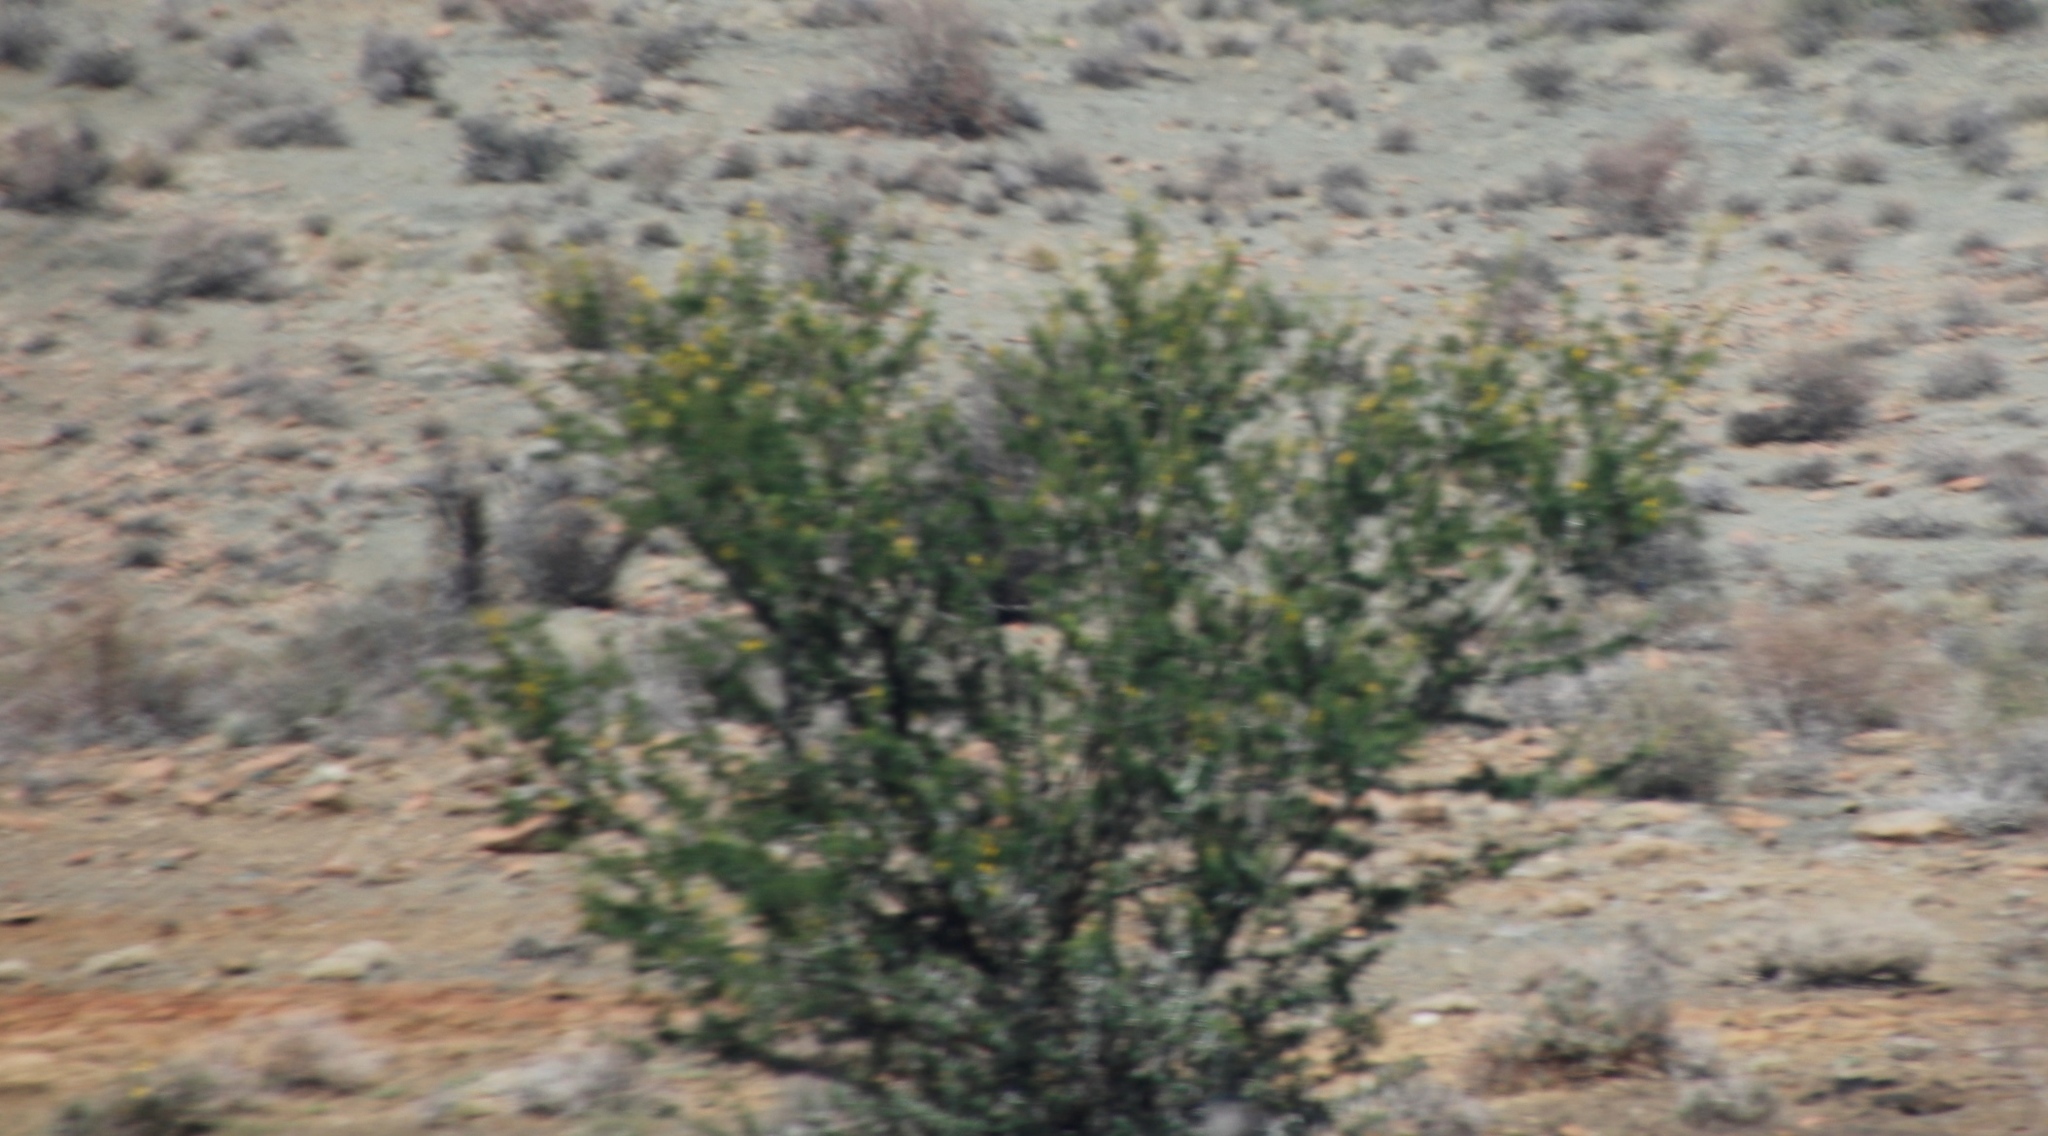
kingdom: Plantae
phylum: Tracheophyta
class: Magnoliopsida
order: Fabales
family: Fabaceae
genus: Vachellia
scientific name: Vachellia karroo
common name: Sweet thorn
